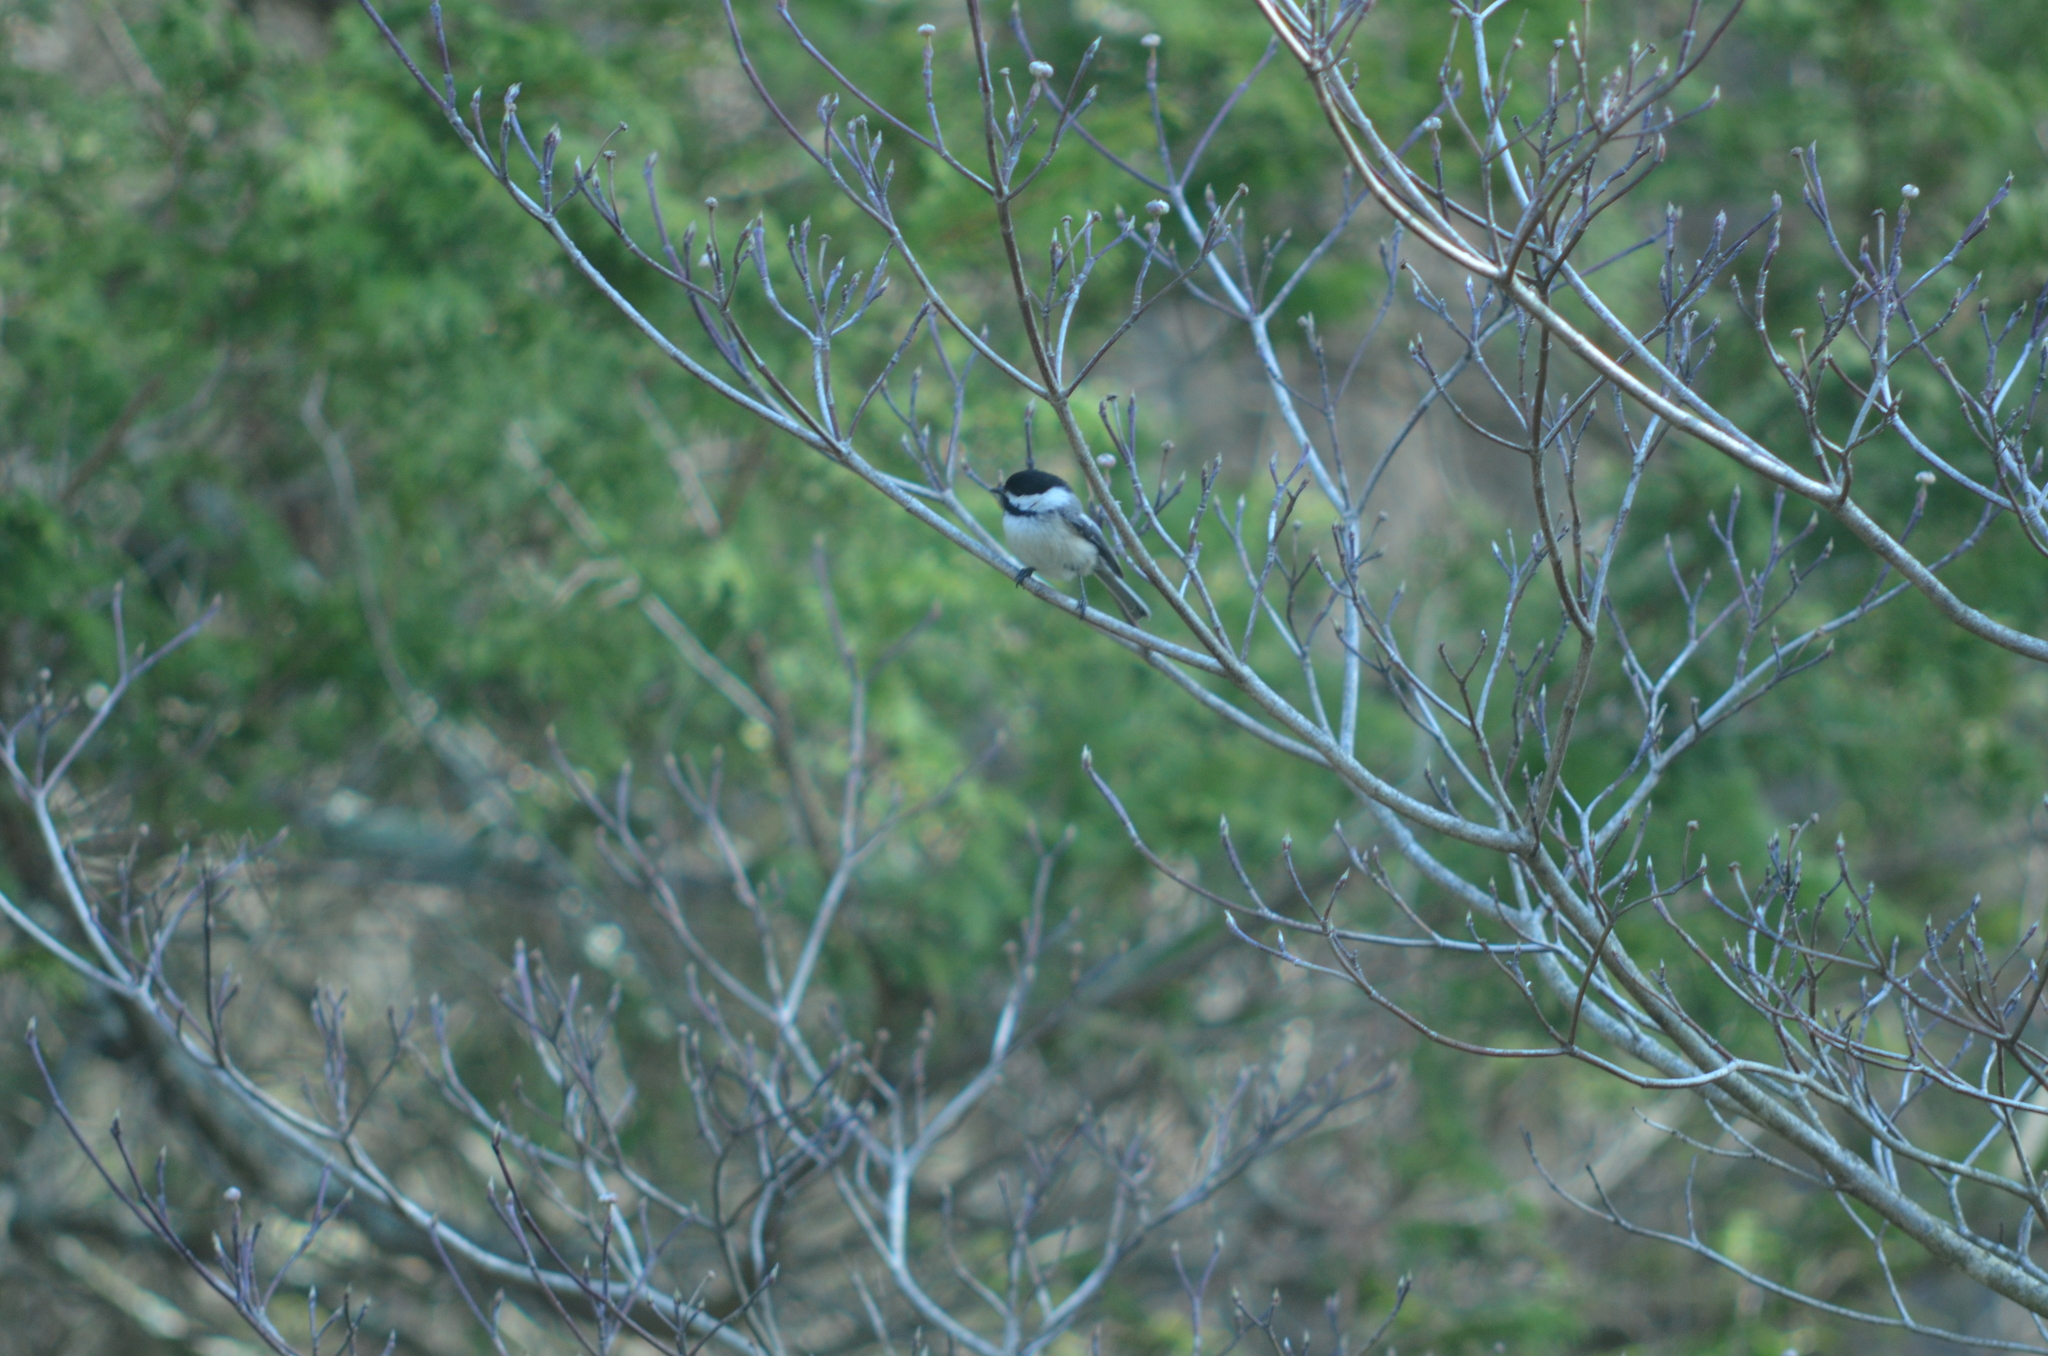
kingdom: Animalia
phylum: Chordata
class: Aves
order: Passeriformes
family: Paridae
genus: Poecile
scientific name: Poecile atricapillus
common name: Black-capped chickadee
